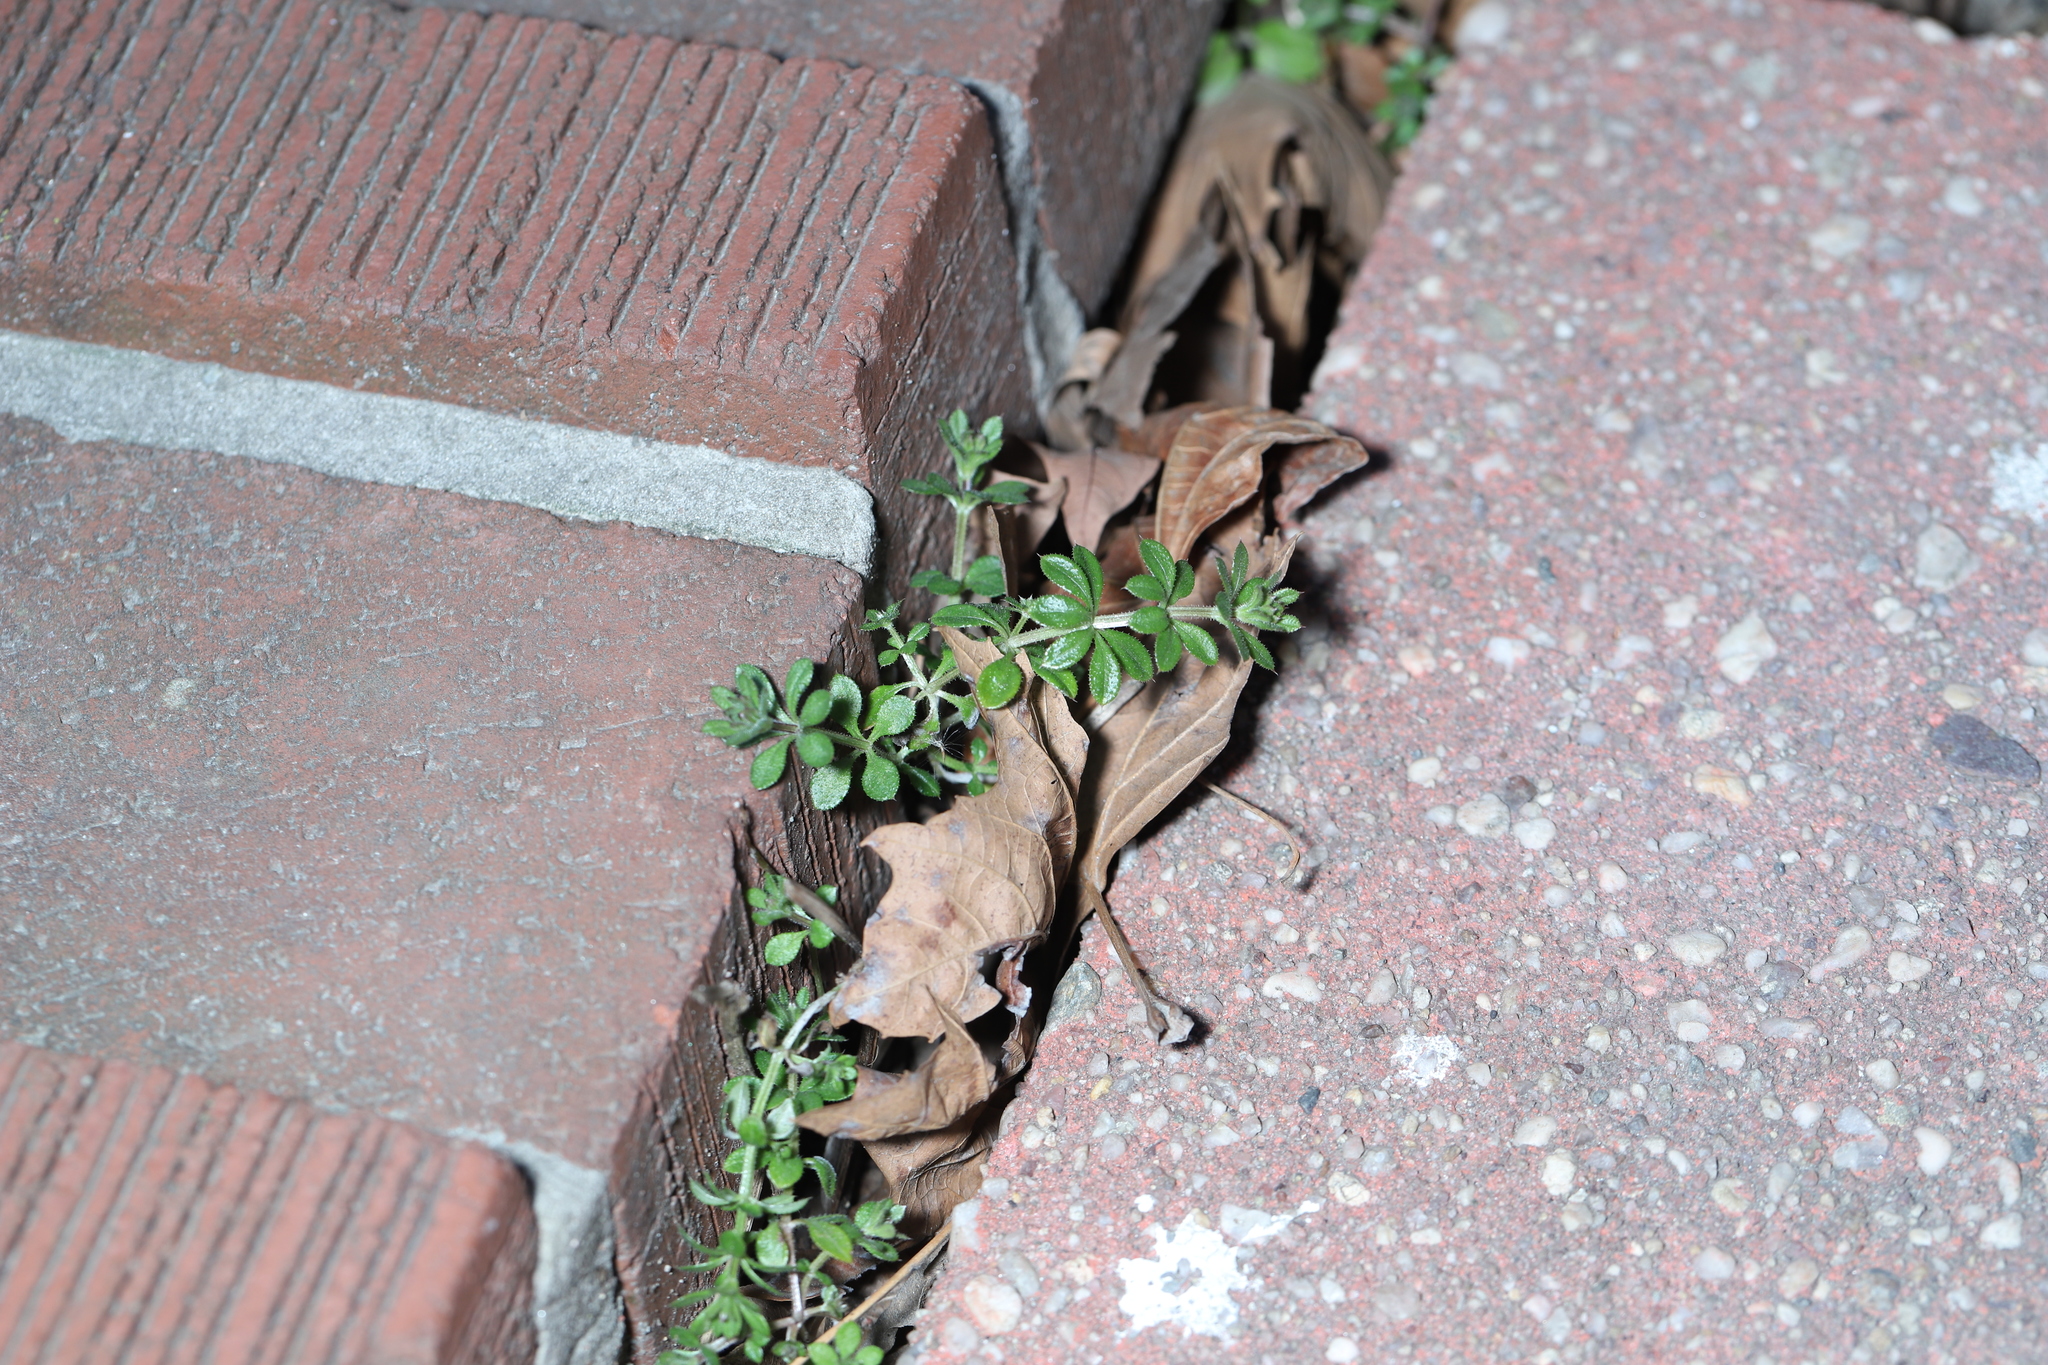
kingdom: Plantae
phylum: Tracheophyta
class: Magnoliopsida
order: Gentianales
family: Rubiaceae
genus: Galium
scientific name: Galium aparine
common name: Cleavers
